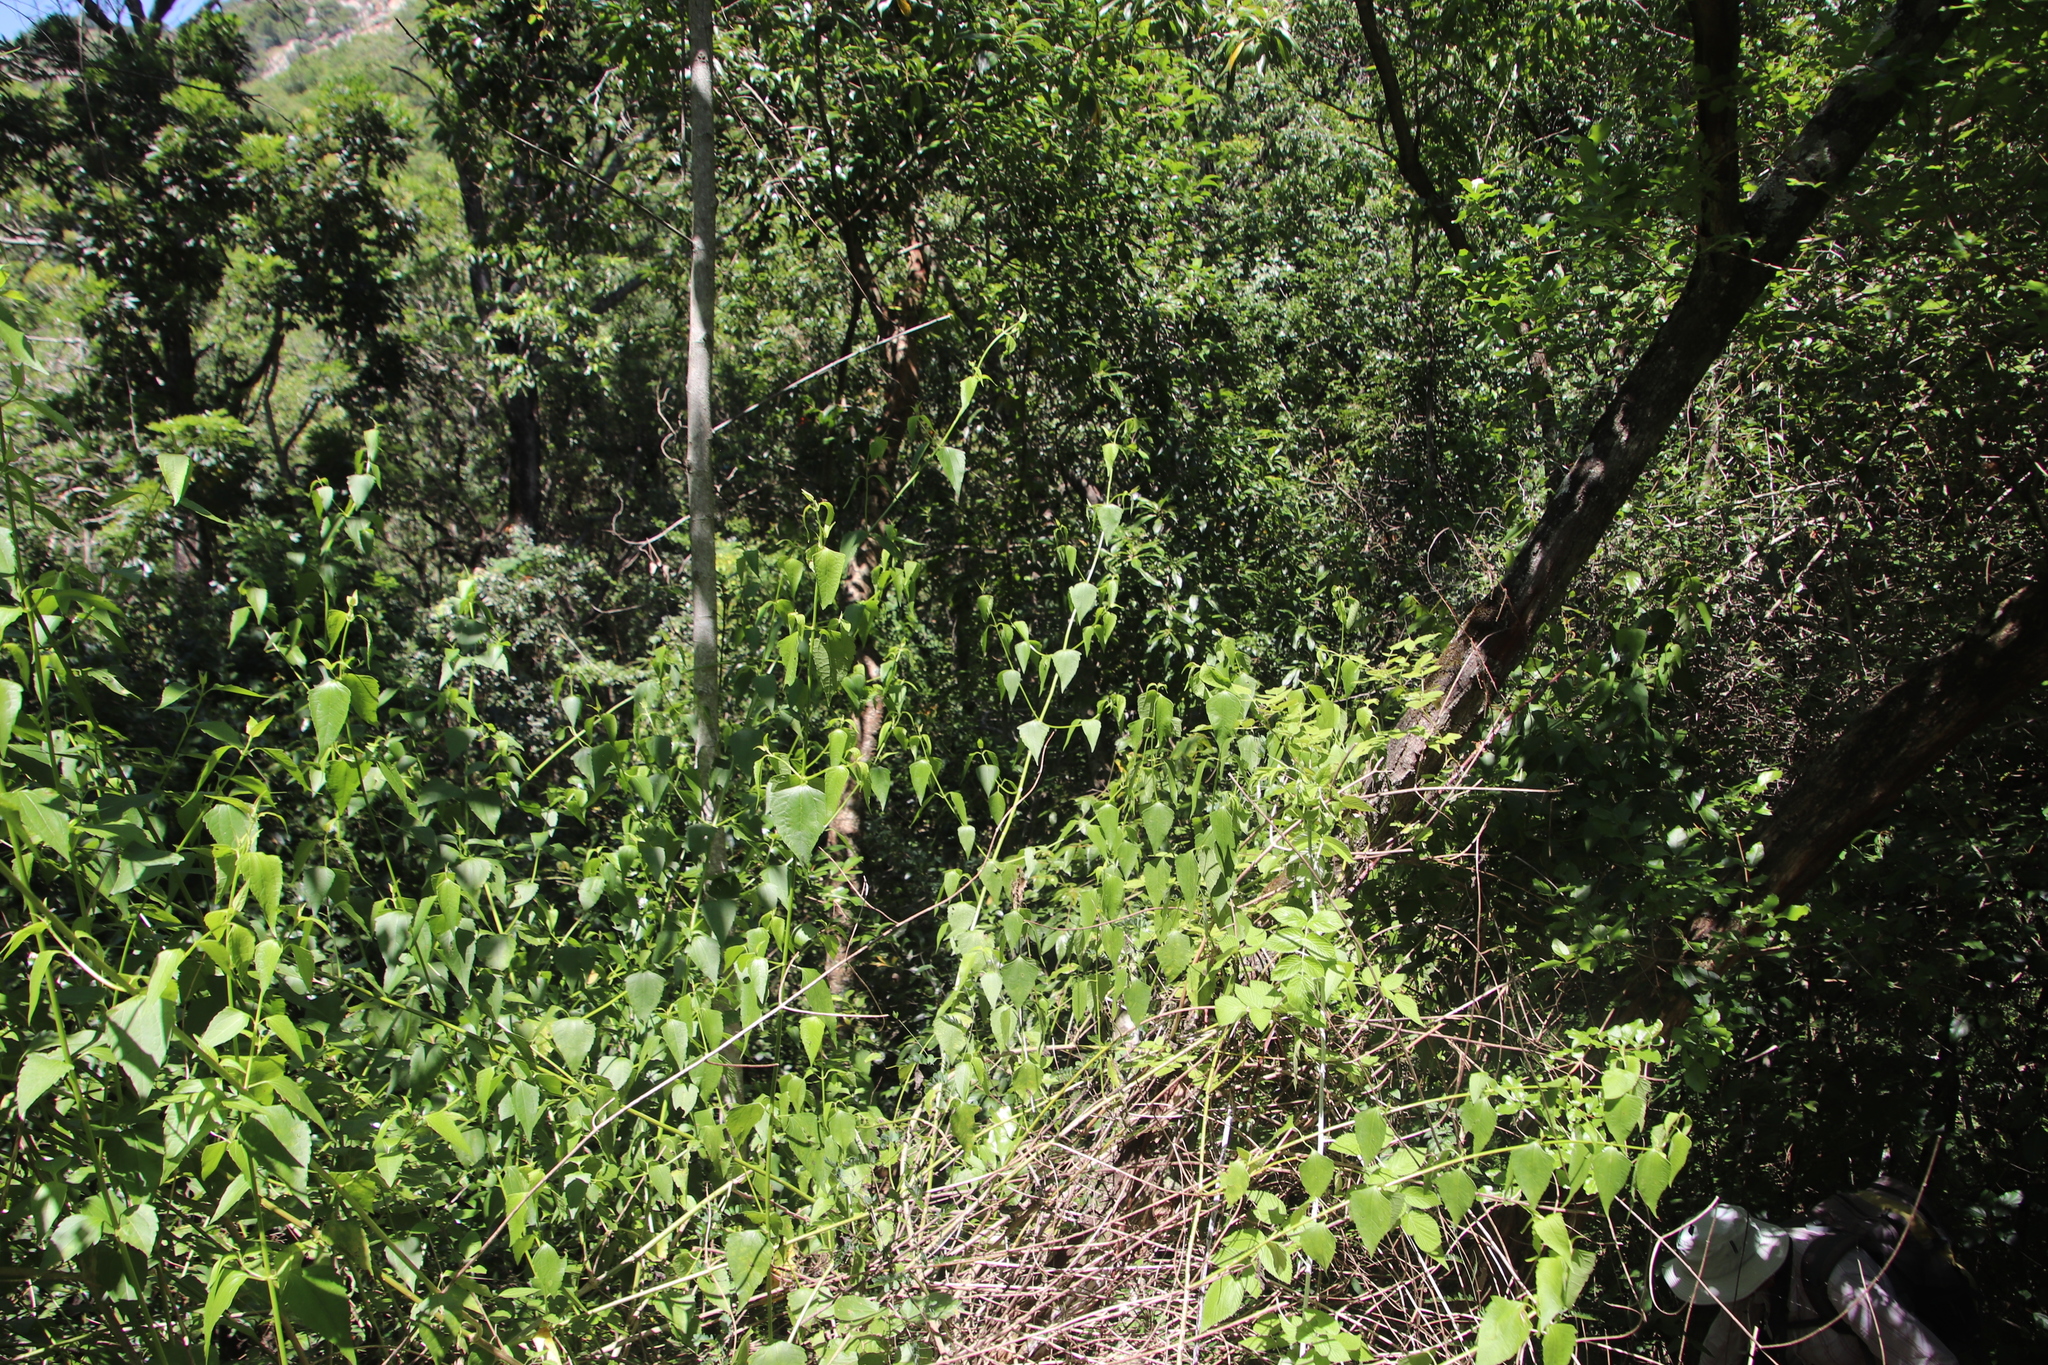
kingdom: Plantae
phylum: Tracheophyta
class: Magnoliopsida
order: Malpighiales
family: Euphorbiaceae
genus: Adenocline
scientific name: Adenocline acuta
